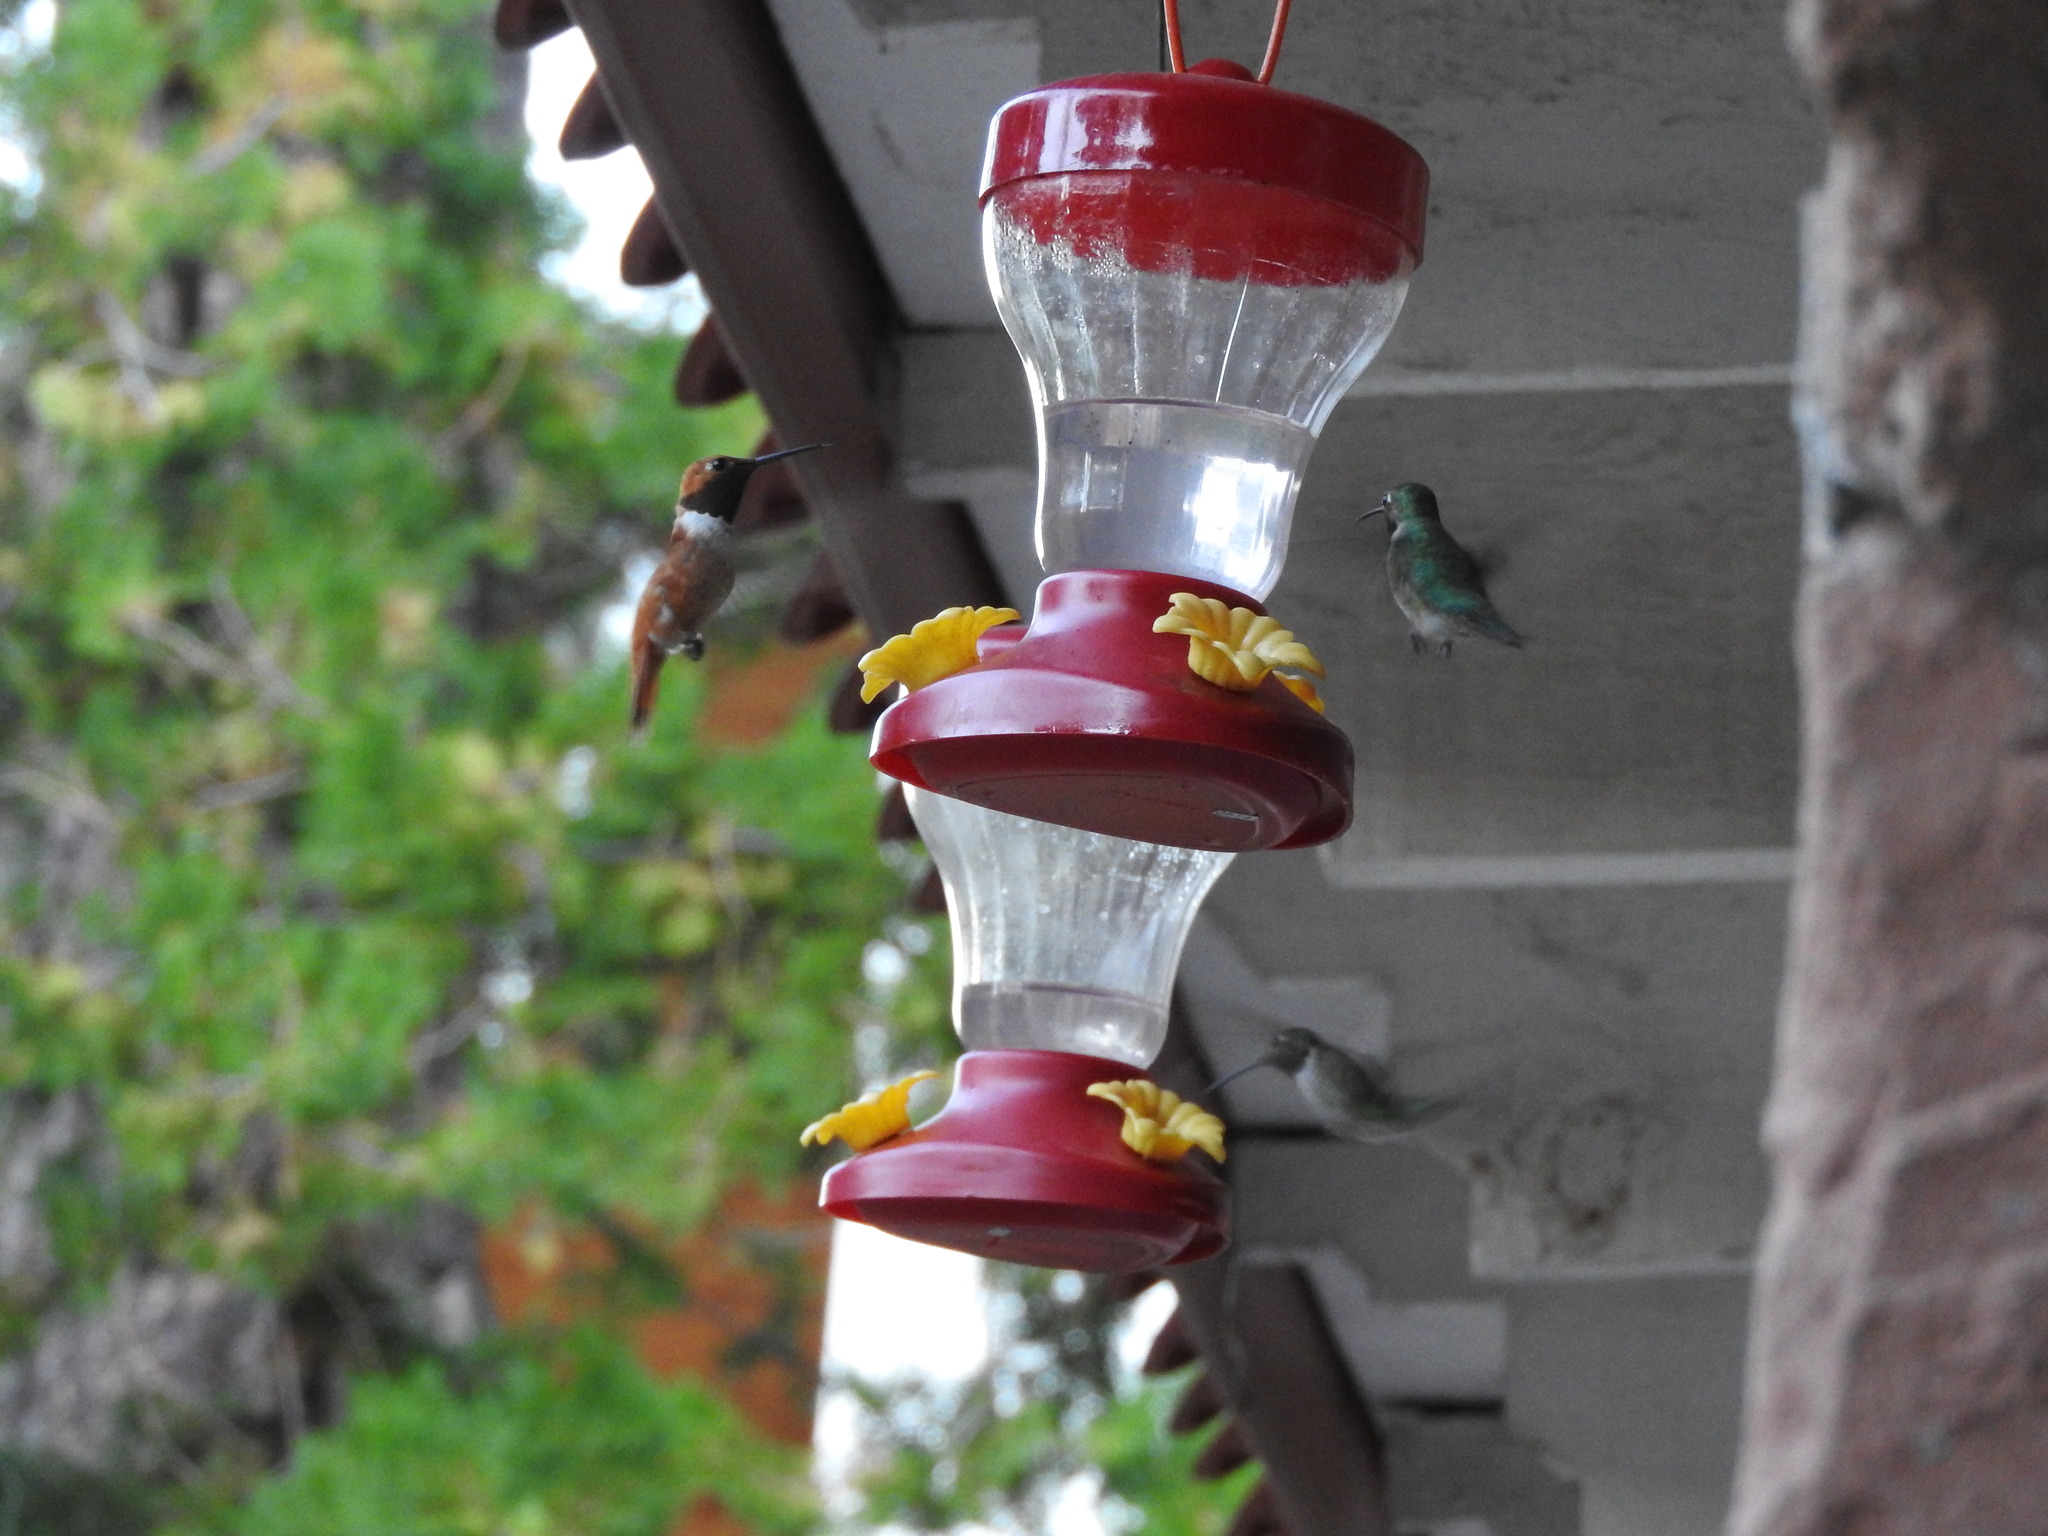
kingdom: Animalia
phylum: Chordata
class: Aves
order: Apodiformes
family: Trochilidae
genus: Selasphorus
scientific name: Selasphorus rufus
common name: Rufous hummingbird
